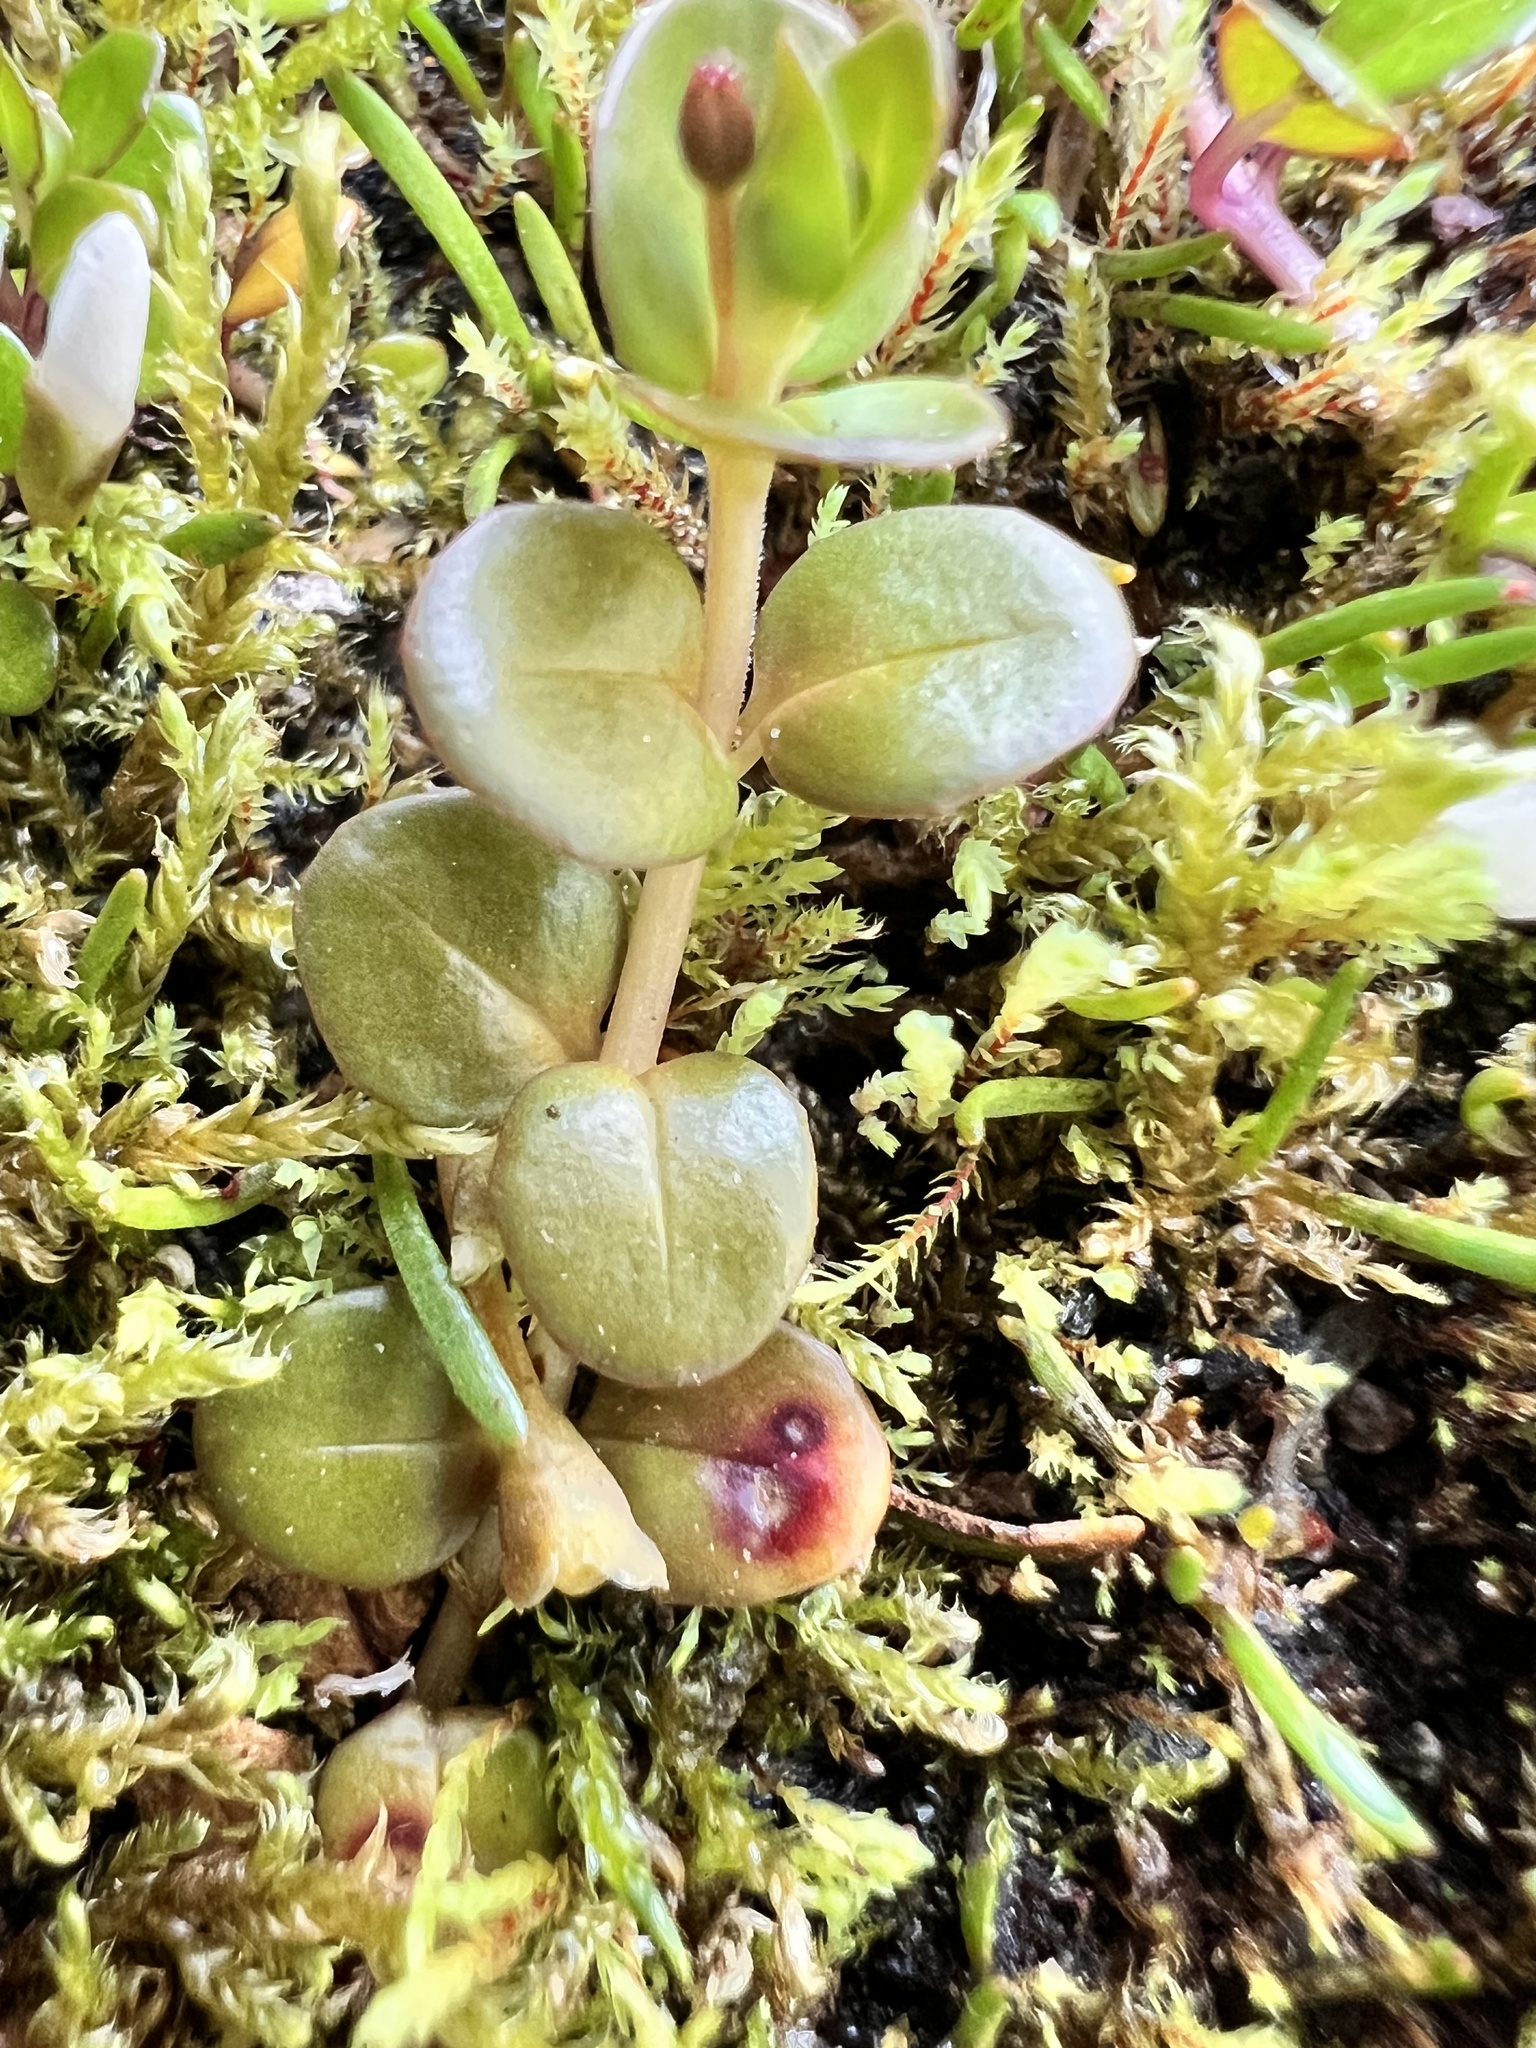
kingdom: Plantae
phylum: Tracheophyta
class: Magnoliopsida
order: Myrtales
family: Onagraceae
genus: Epilobium
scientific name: Epilobium brunnescens
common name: New zealand willowherb
